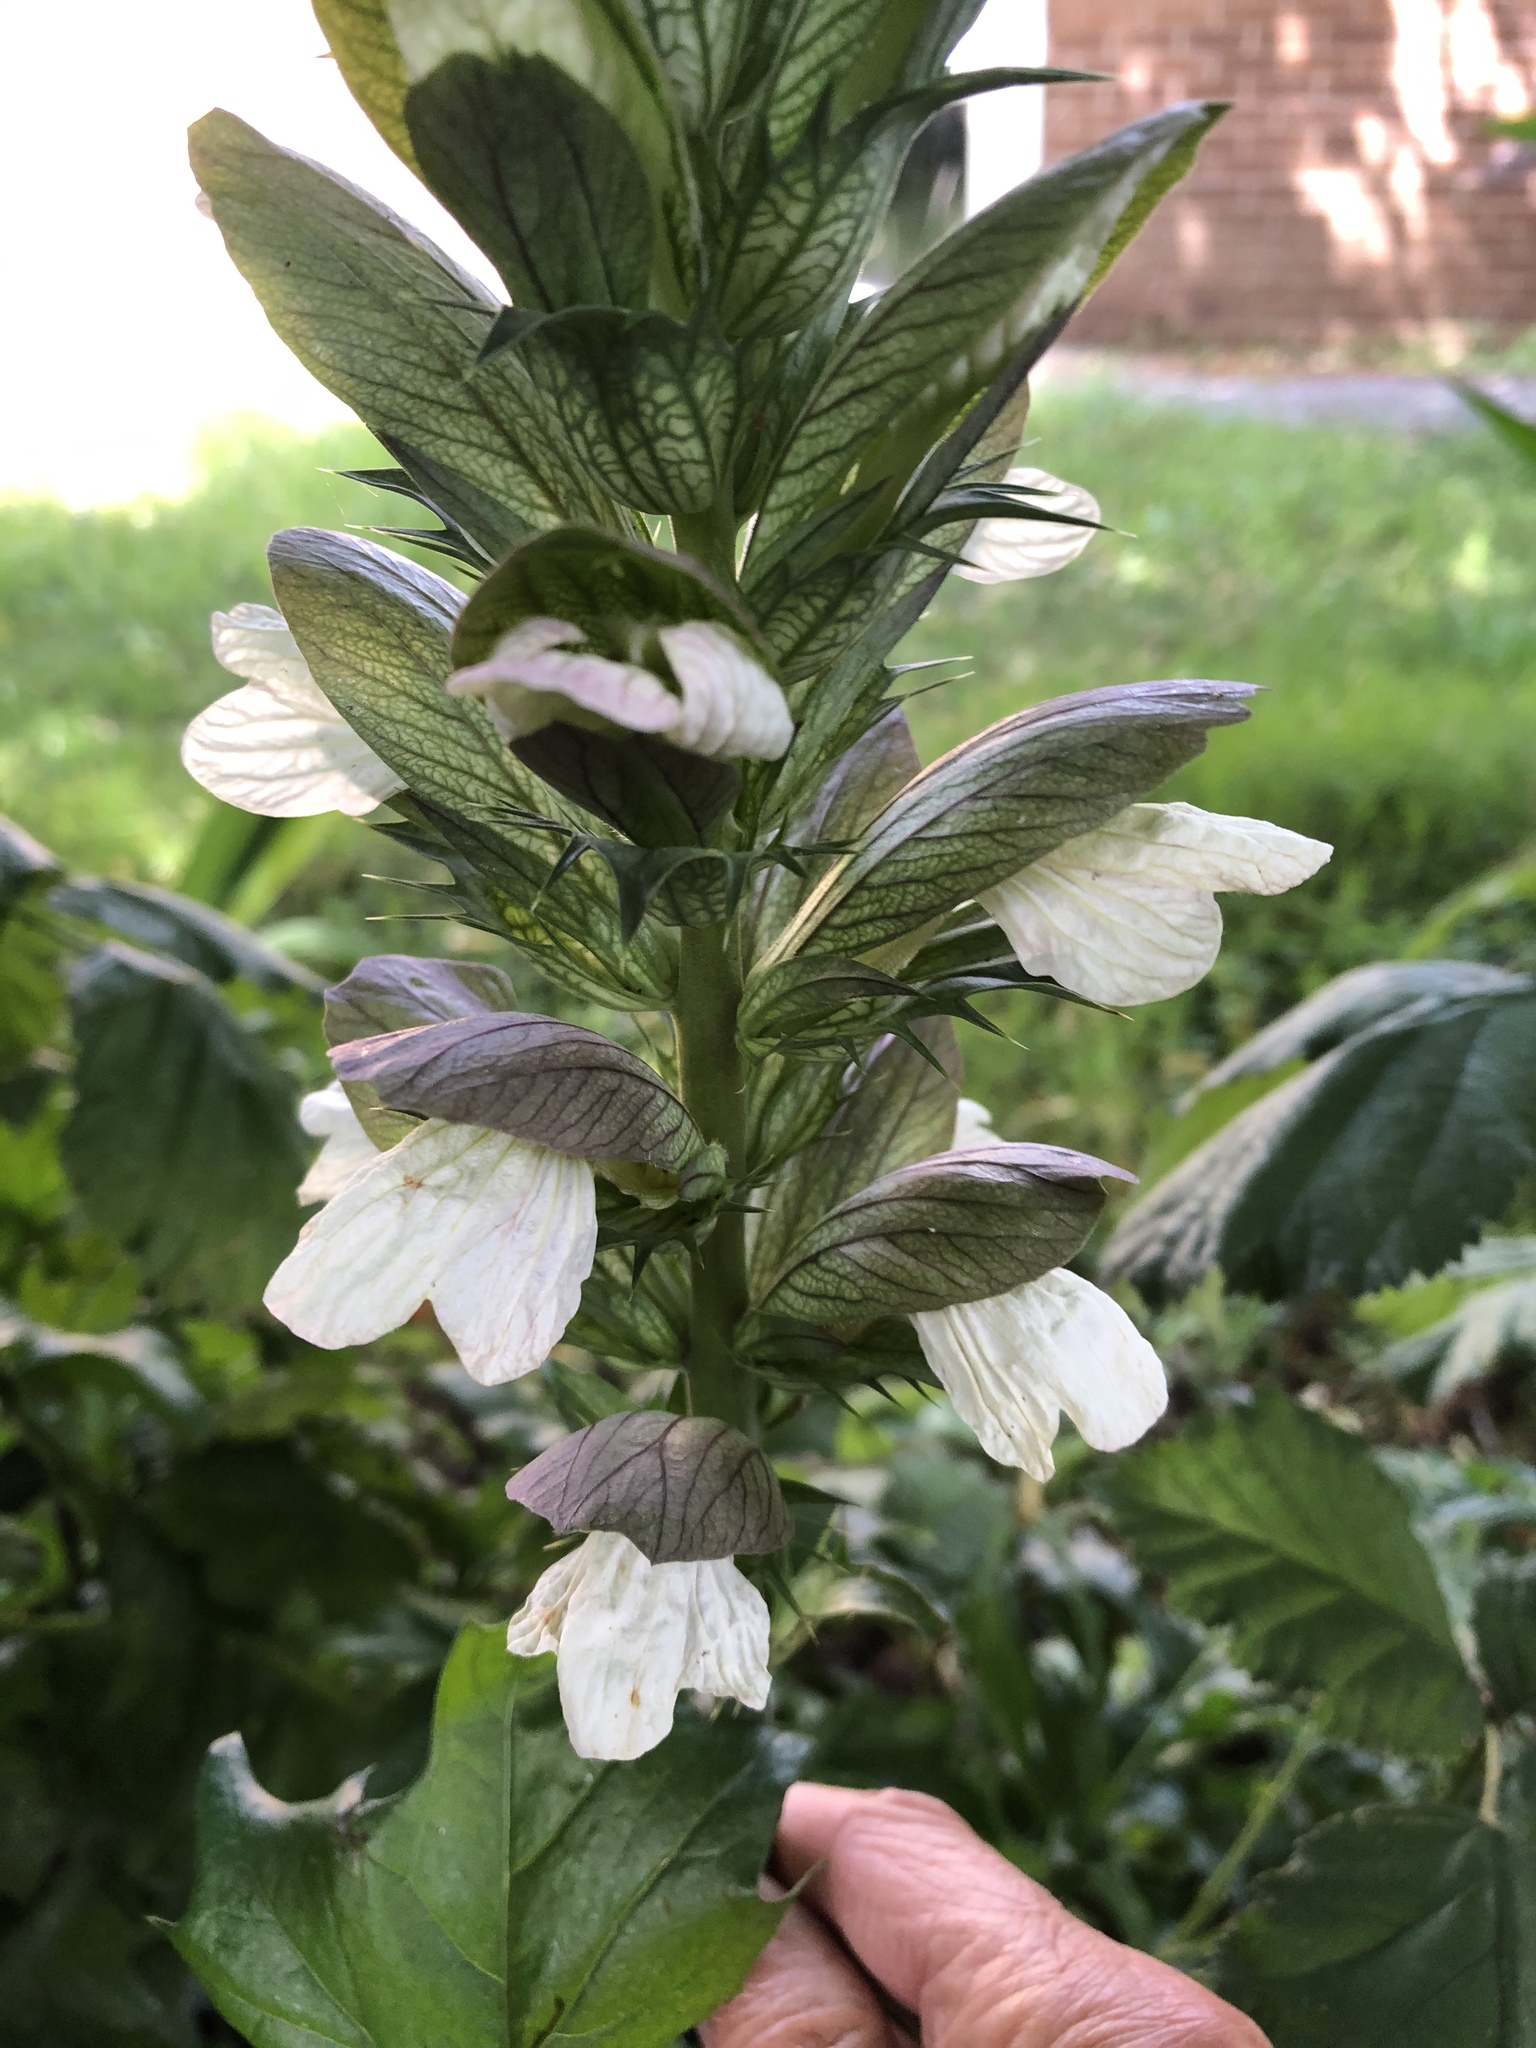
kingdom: Plantae
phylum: Tracheophyta
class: Magnoliopsida
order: Lamiales
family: Acanthaceae
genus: Acanthus
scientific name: Acanthus mollis
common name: Bear's-breech
